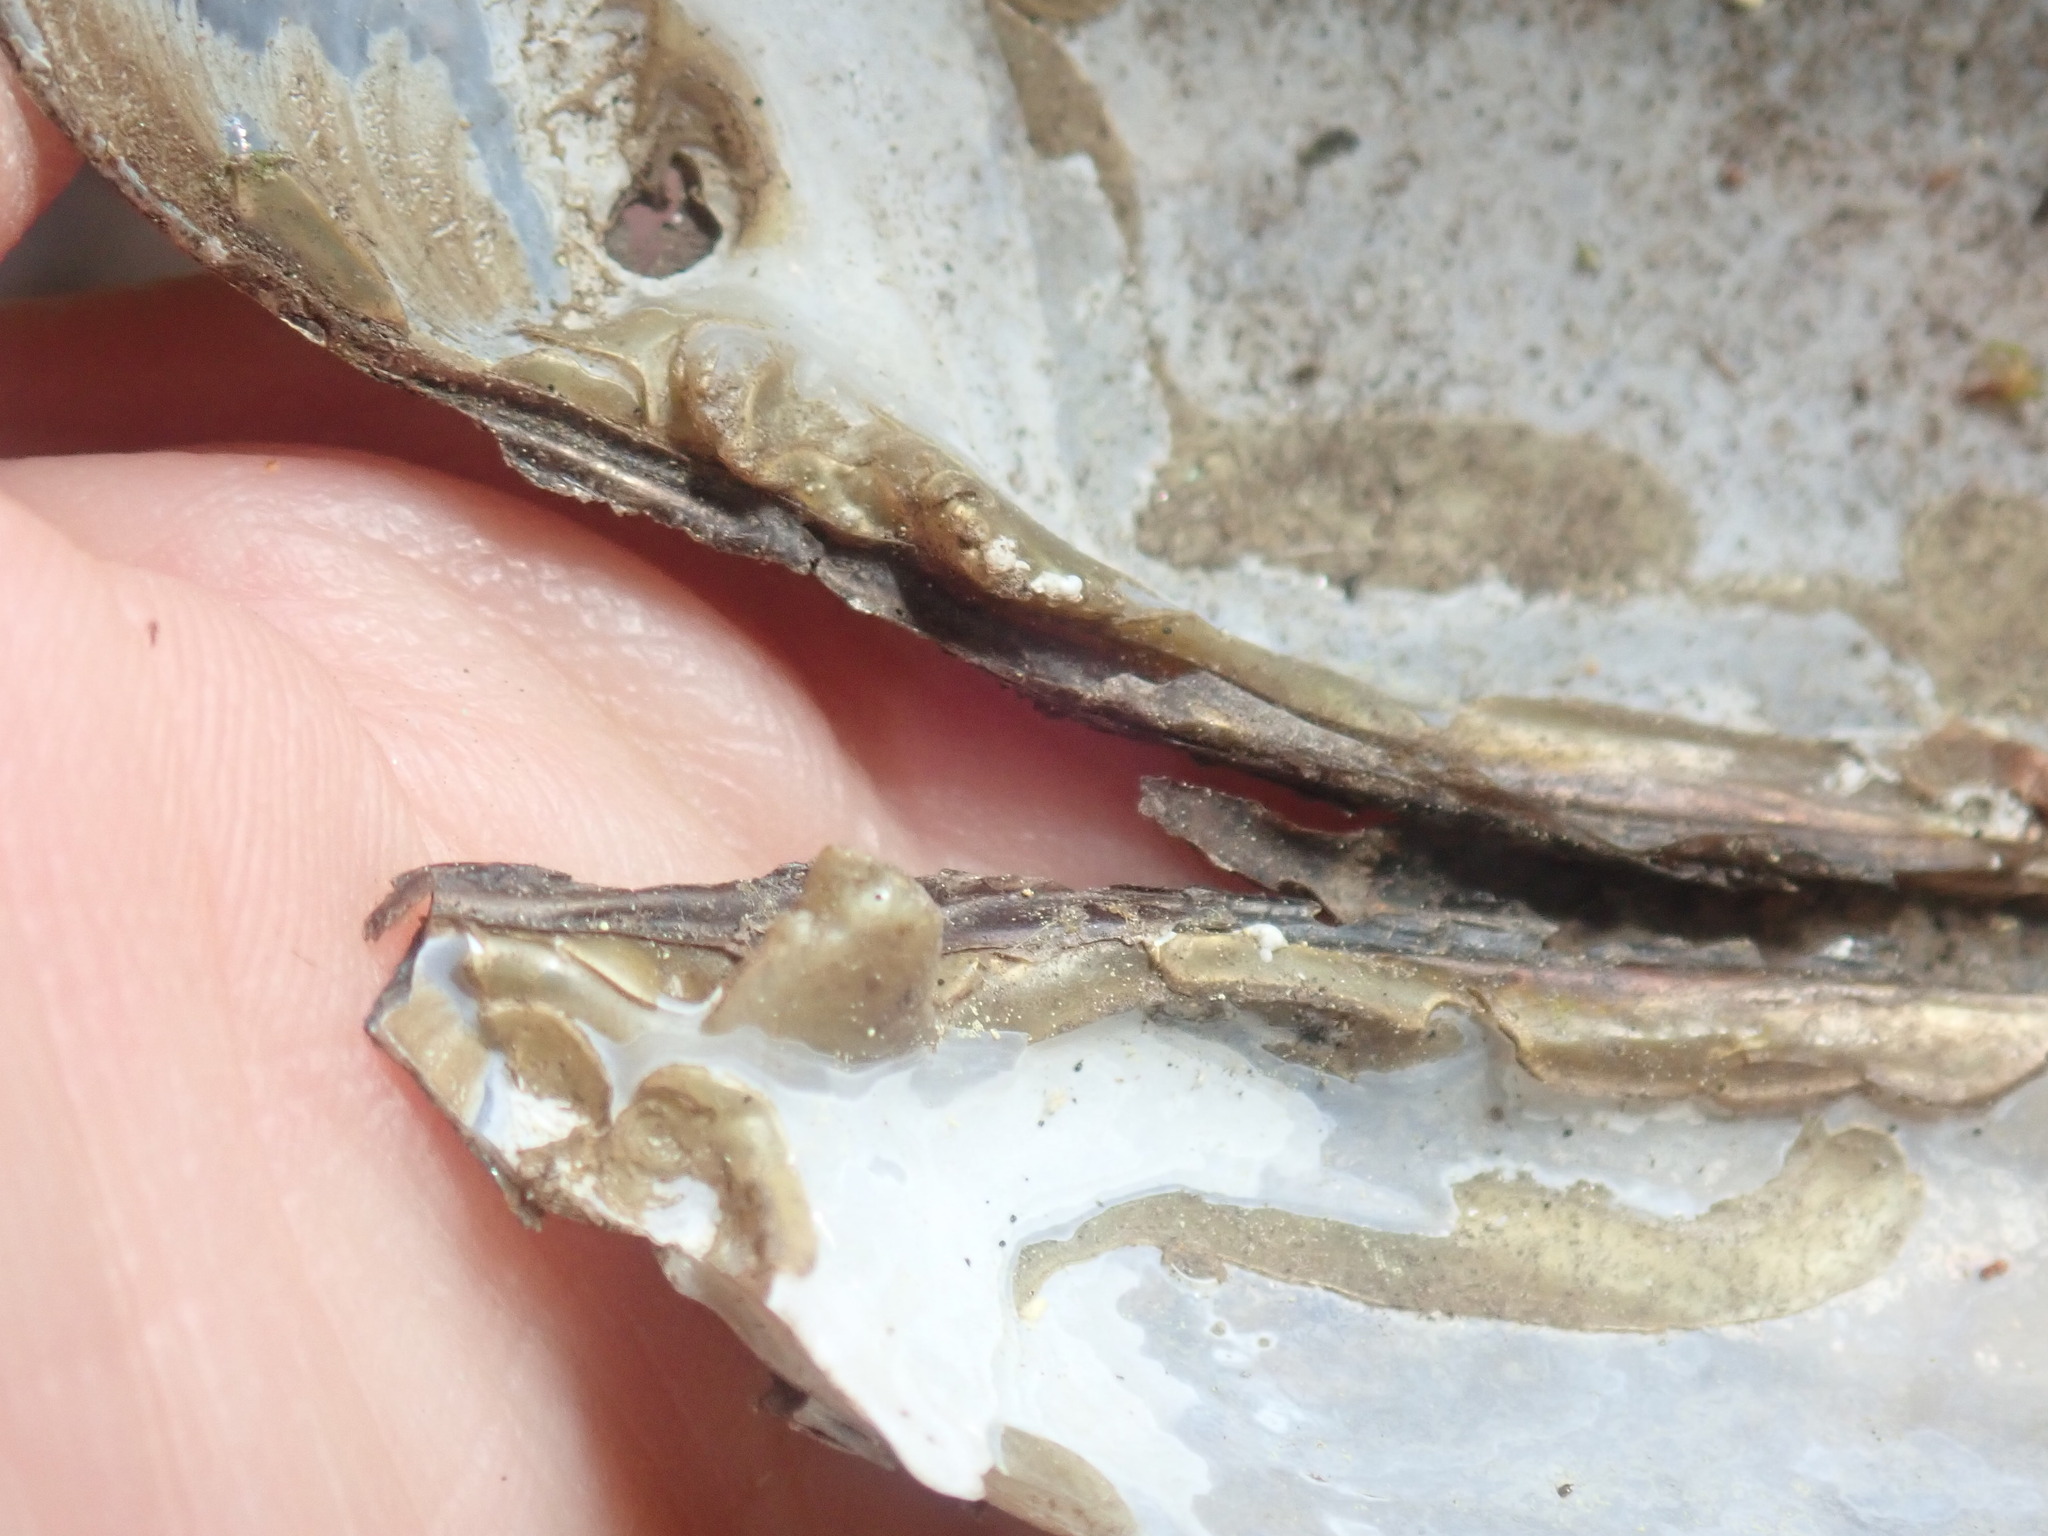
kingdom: Animalia
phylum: Mollusca
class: Bivalvia
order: Unionida
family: Margaritiferidae
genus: Margaritifera
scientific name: Margaritifera margaritifera
